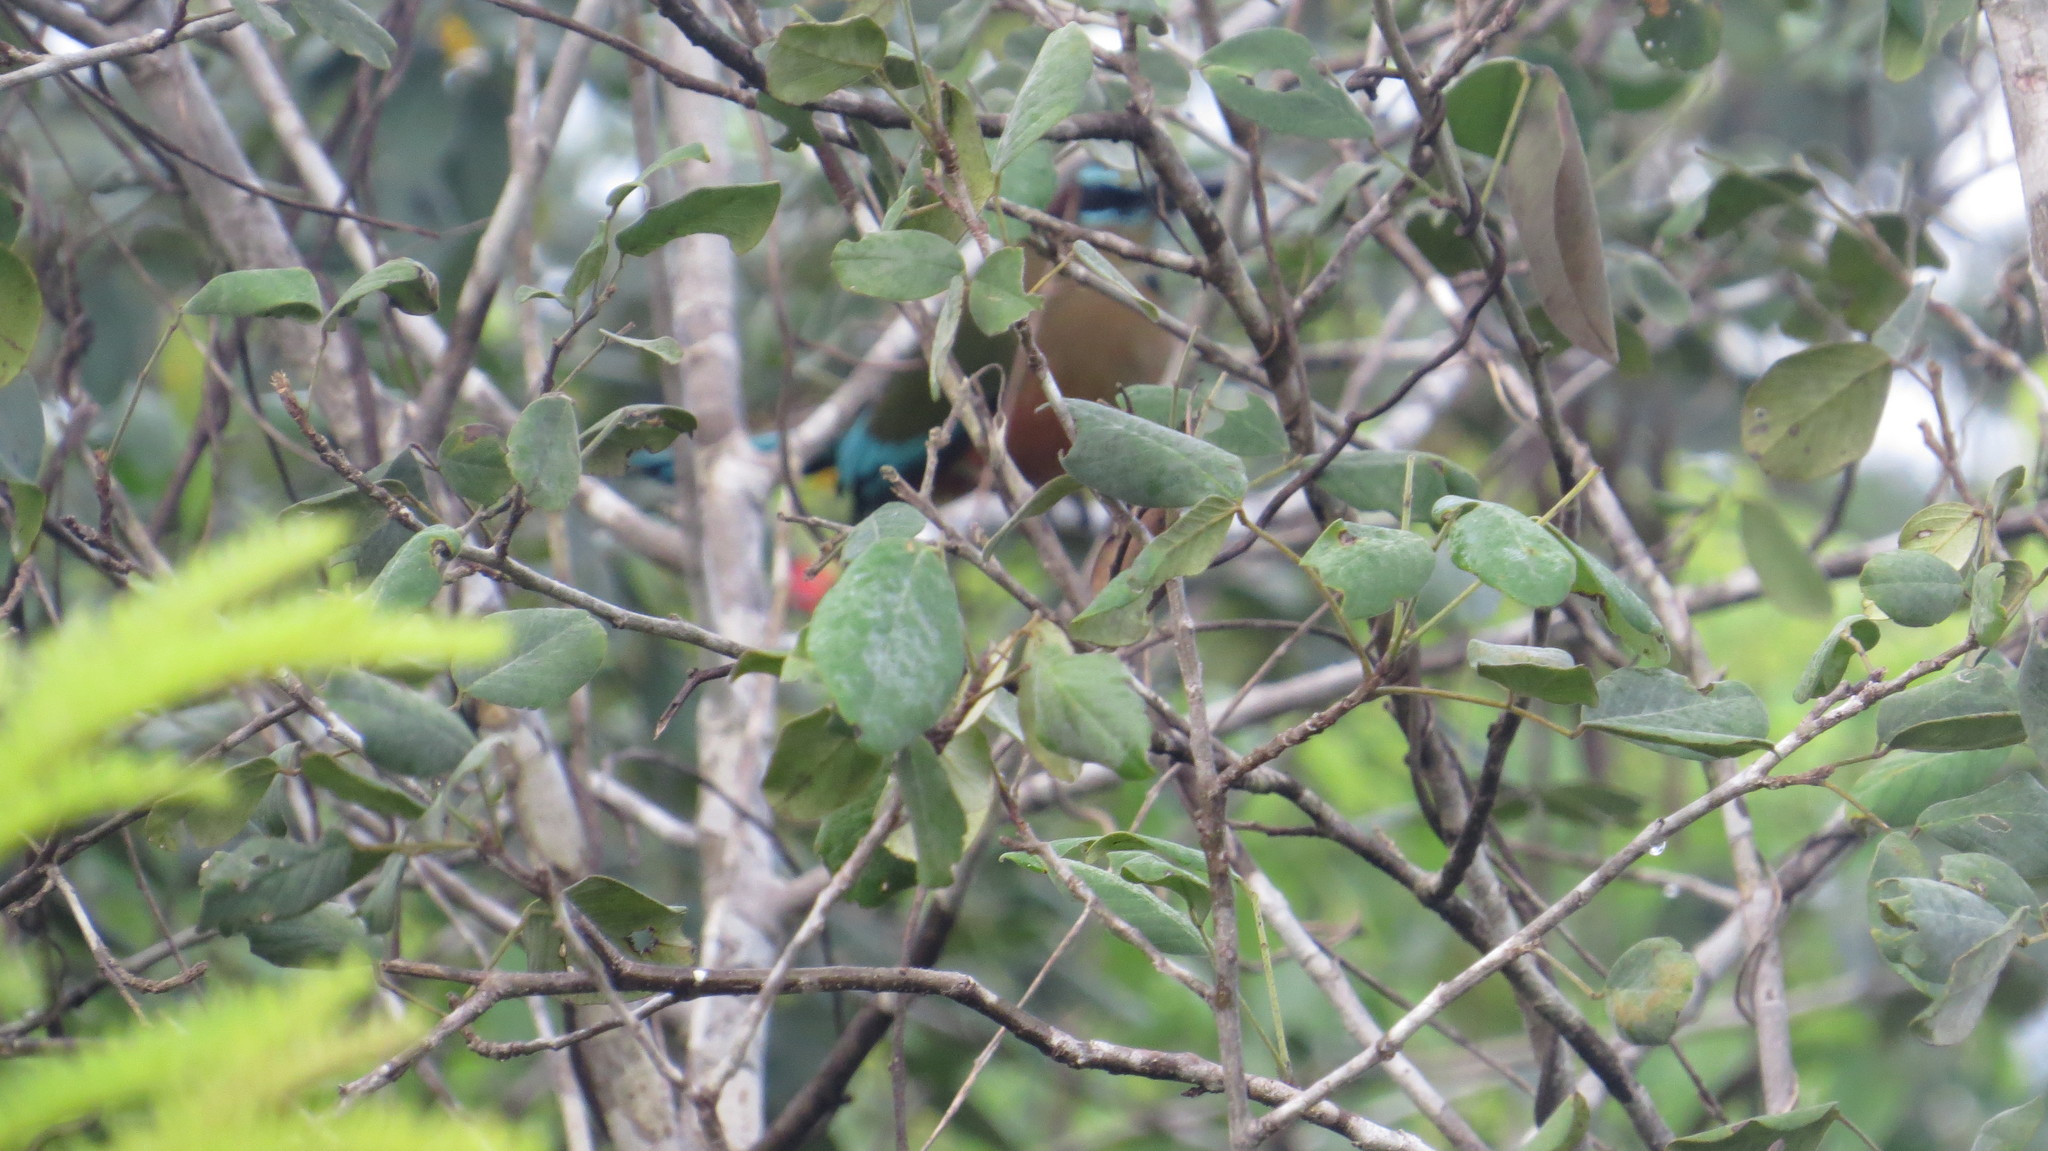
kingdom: Animalia
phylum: Chordata
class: Aves
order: Coraciiformes
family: Momotidae
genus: Eumomota
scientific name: Eumomota superciliosa
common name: Turquoise-browed motmot
